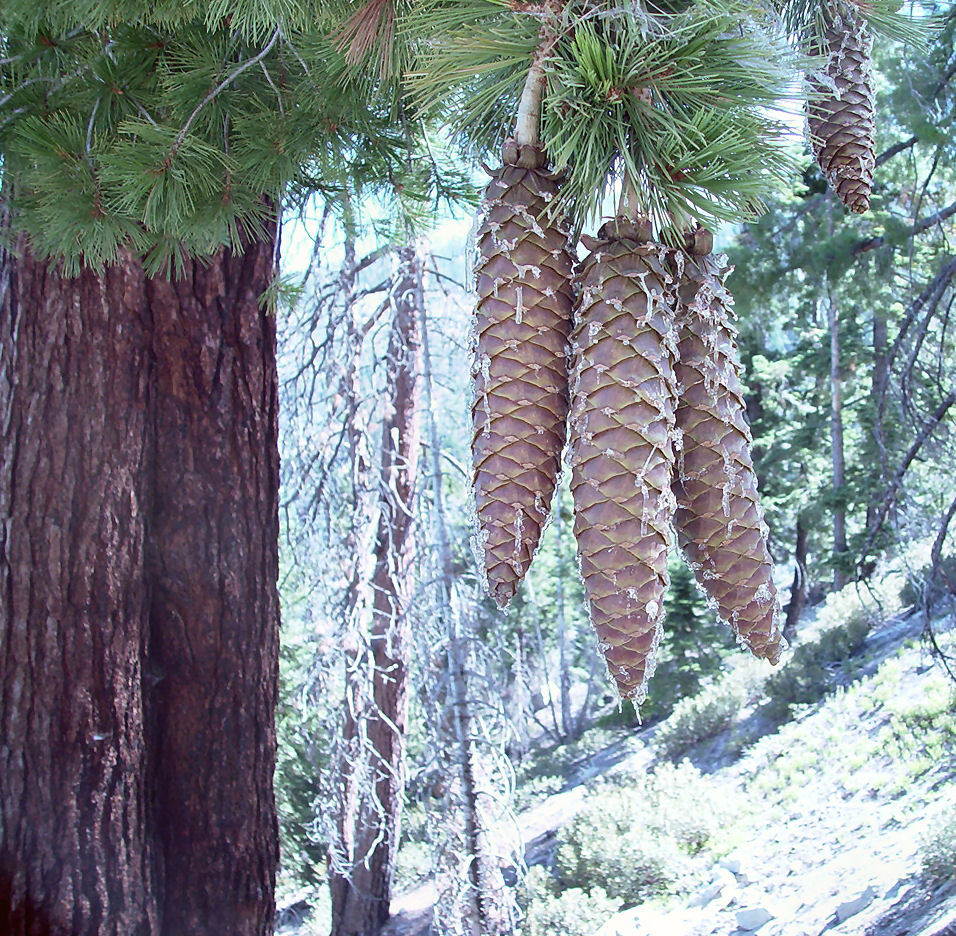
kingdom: Plantae
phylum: Tracheophyta
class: Pinopsida
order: Pinales
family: Pinaceae
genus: Pinus
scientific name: Pinus lambertiana
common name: Sugar pine
